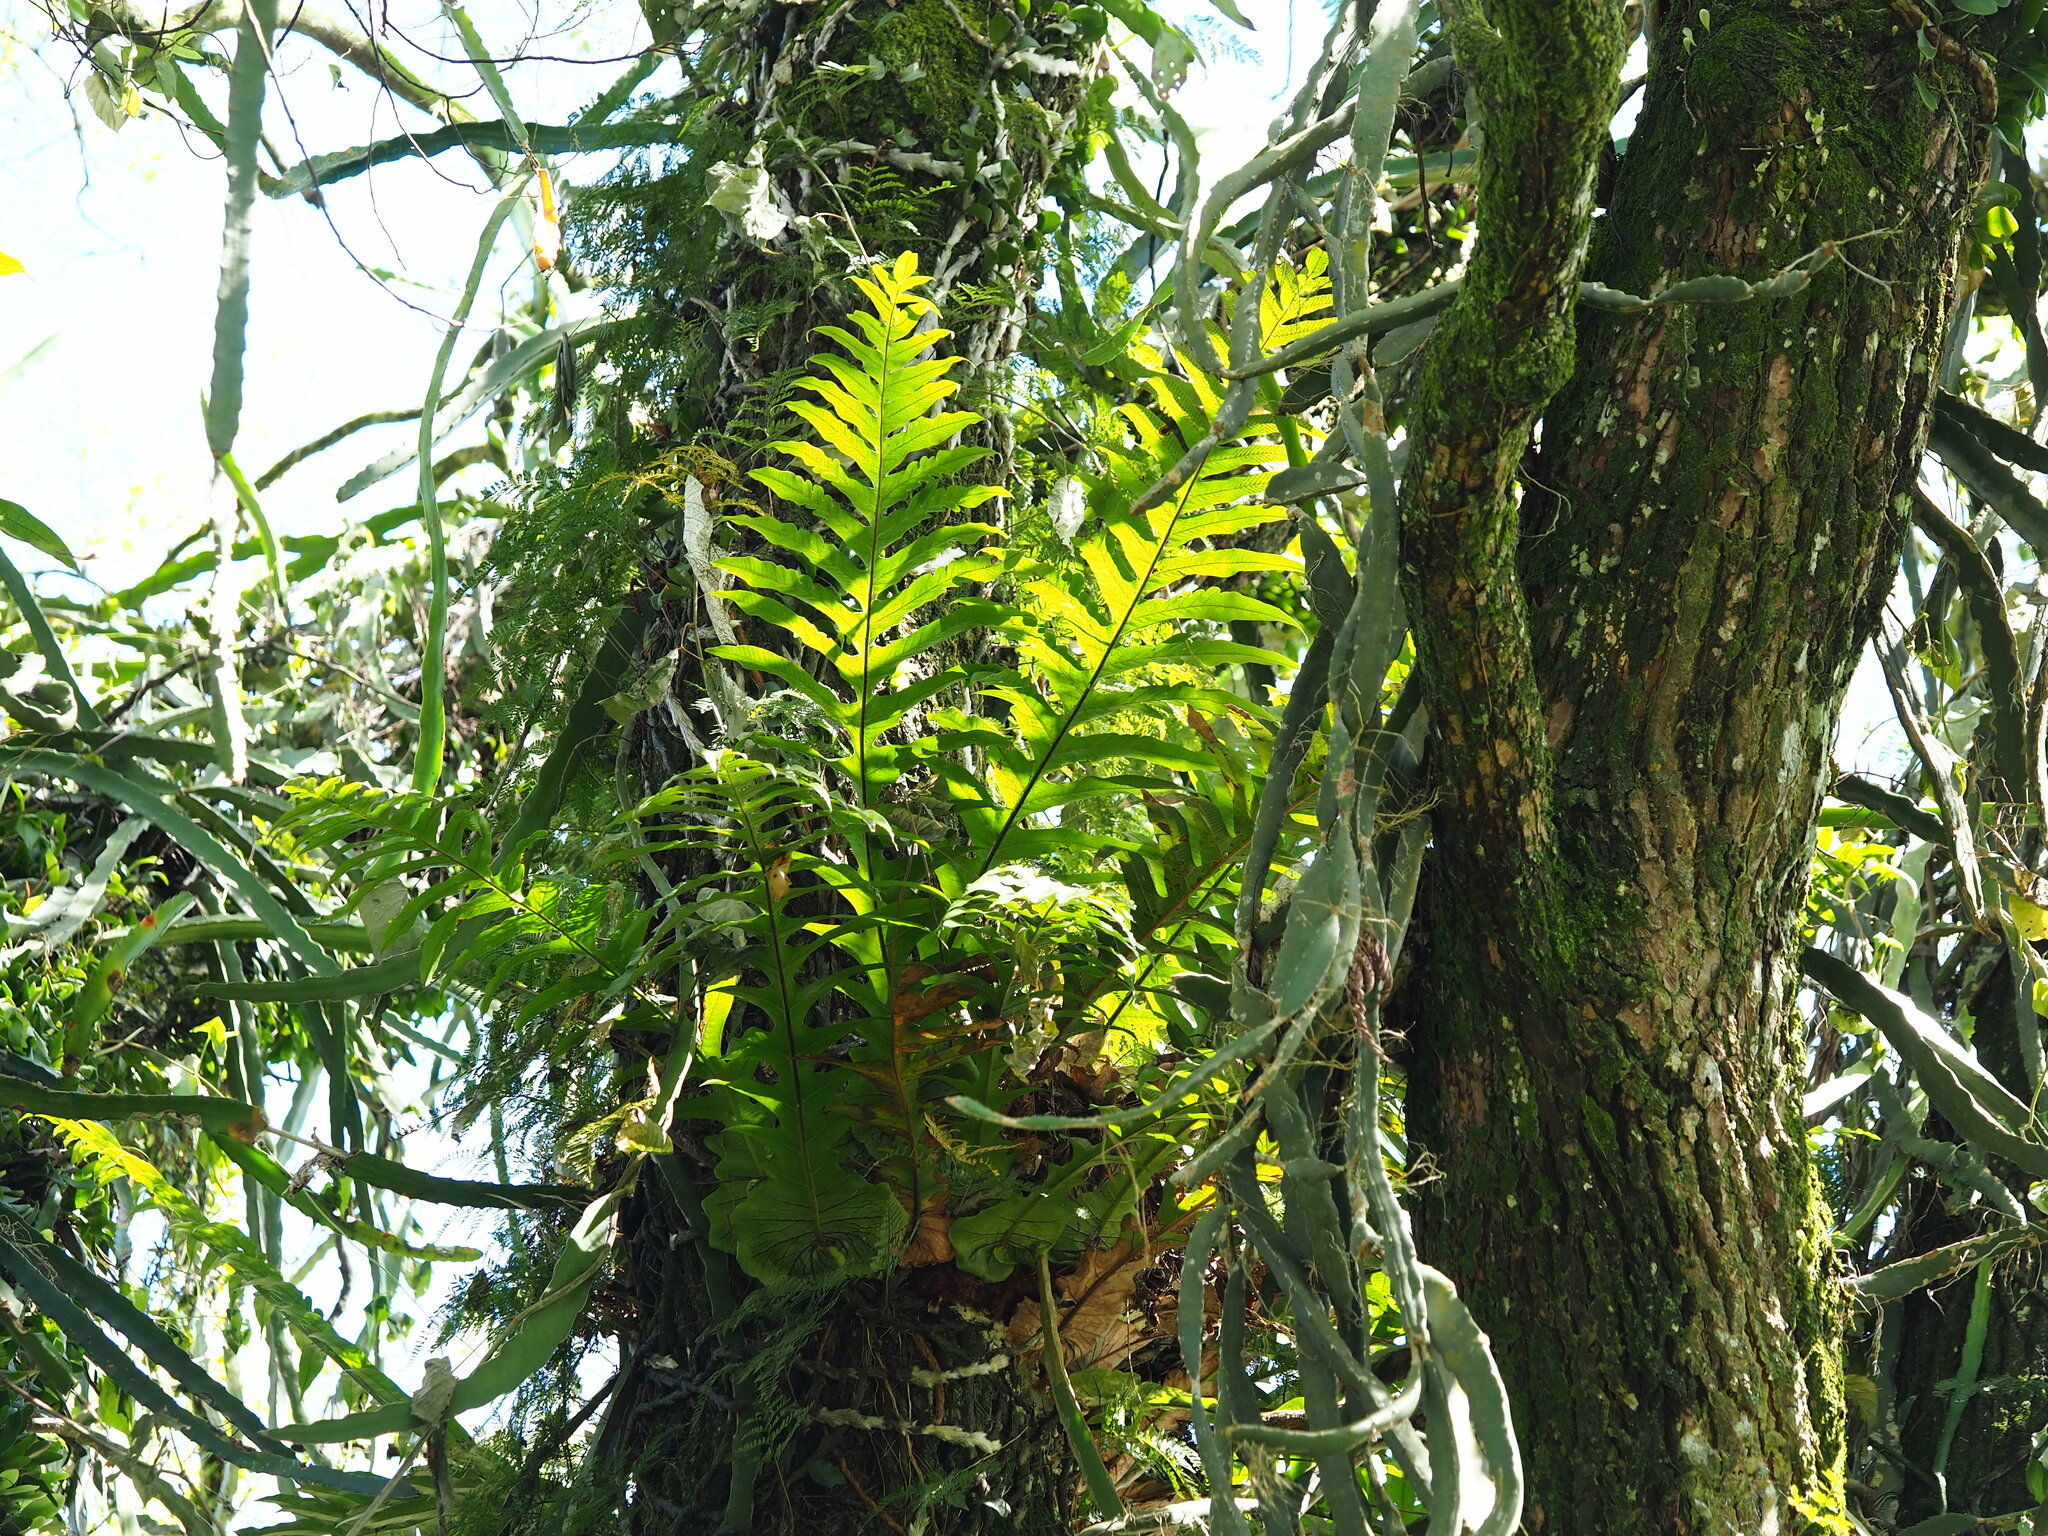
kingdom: Plantae
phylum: Tracheophyta
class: Polypodiopsida
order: Polypodiales
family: Polypodiaceae
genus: Drynaria
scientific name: Drynaria coronans
